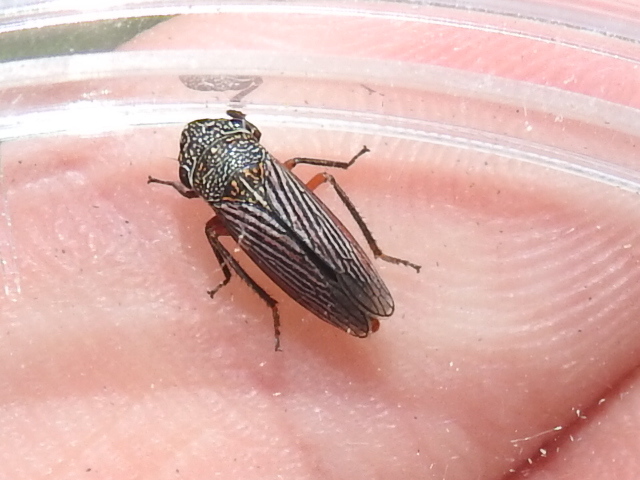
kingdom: Animalia
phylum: Arthropoda
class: Insecta
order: Hemiptera
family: Cicadellidae
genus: Cuerna
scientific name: Cuerna costalis
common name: Lateral-lined sharpshooter
